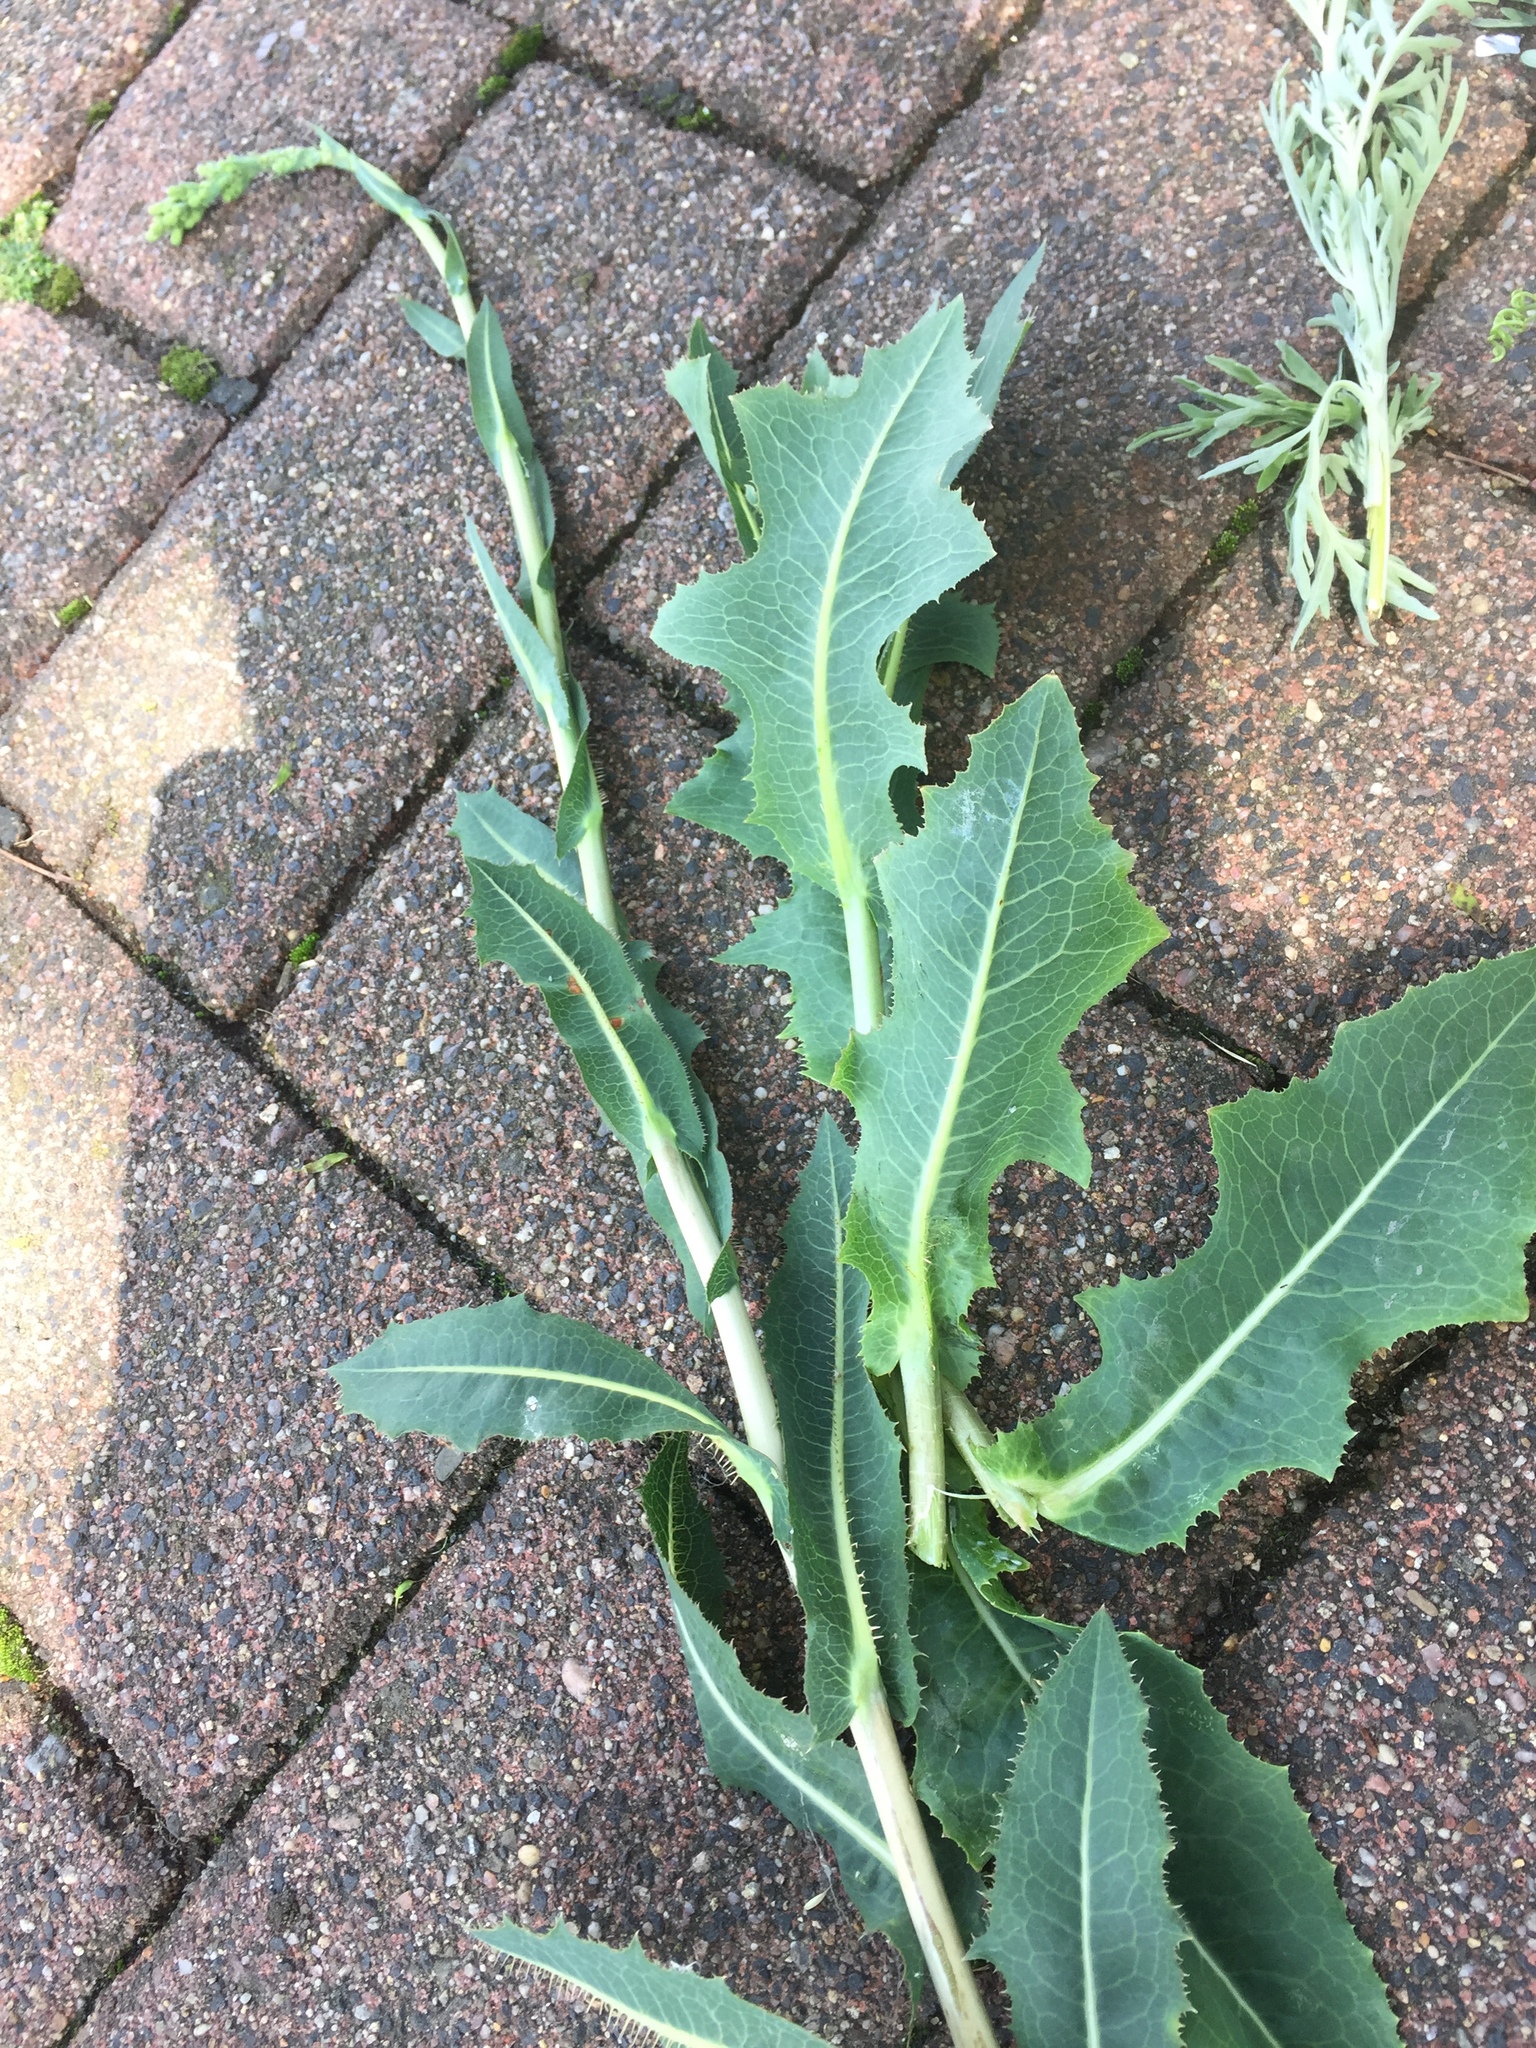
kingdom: Plantae
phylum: Tracheophyta
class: Magnoliopsida
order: Asterales
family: Asteraceae
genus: Lactuca
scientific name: Lactuca serriola
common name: Prickly lettuce
